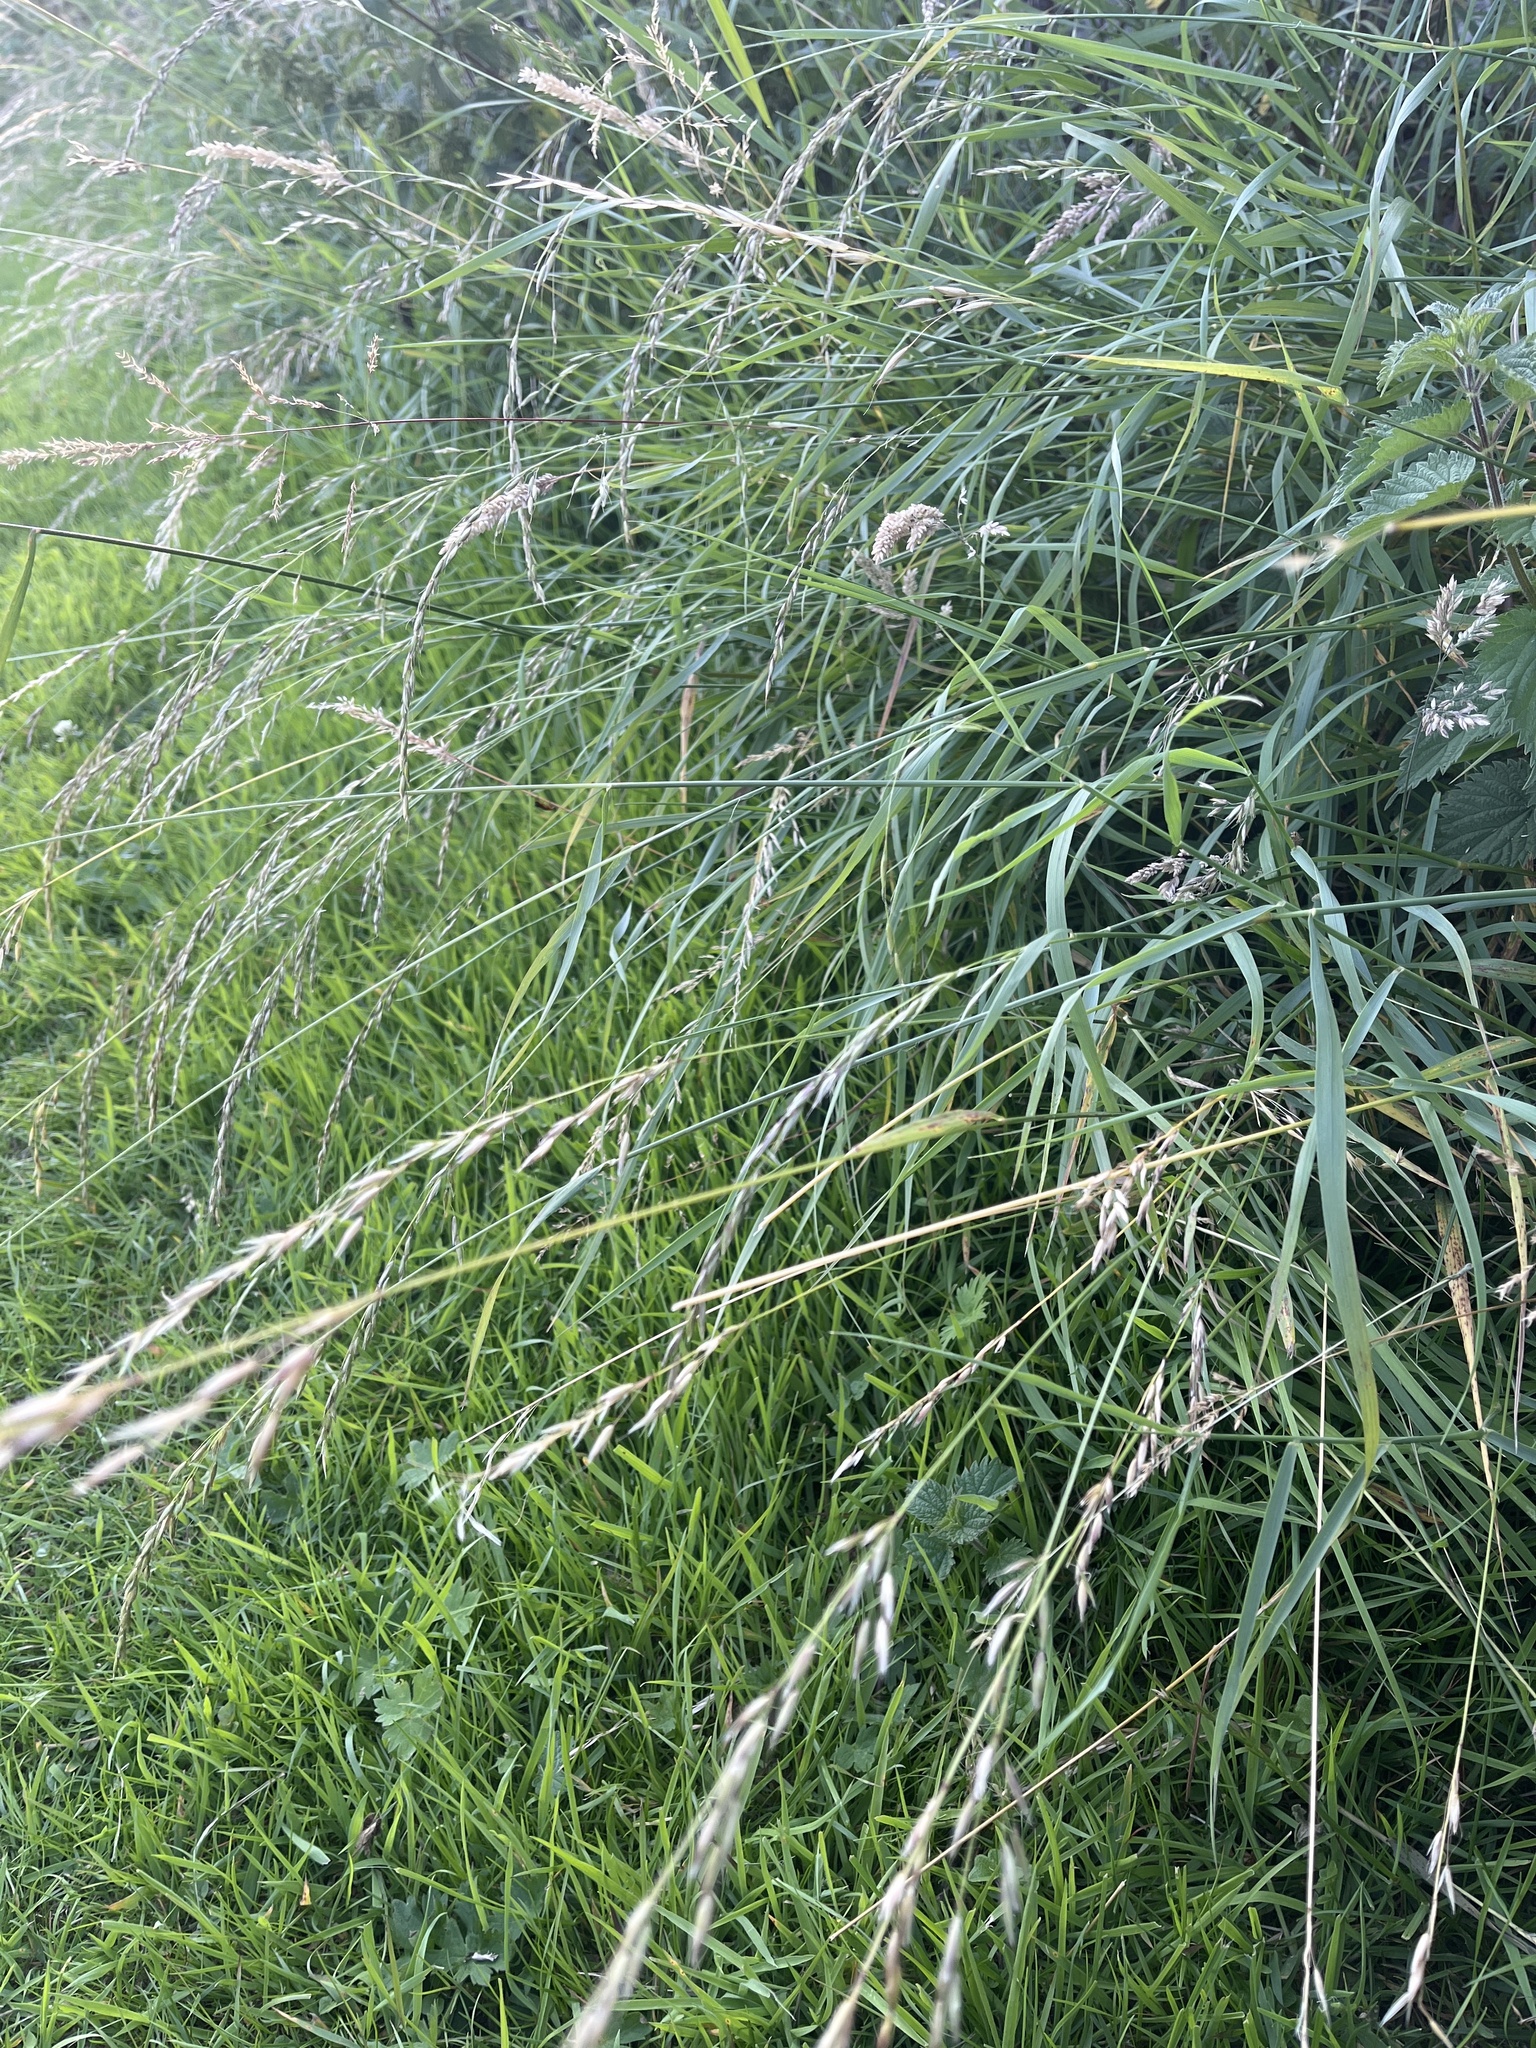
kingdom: Plantae
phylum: Tracheophyta
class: Liliopsida
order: Poales
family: Poaceae
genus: Arrhenatherum
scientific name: Arrhenatherum elatius
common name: Tall oatgrass
